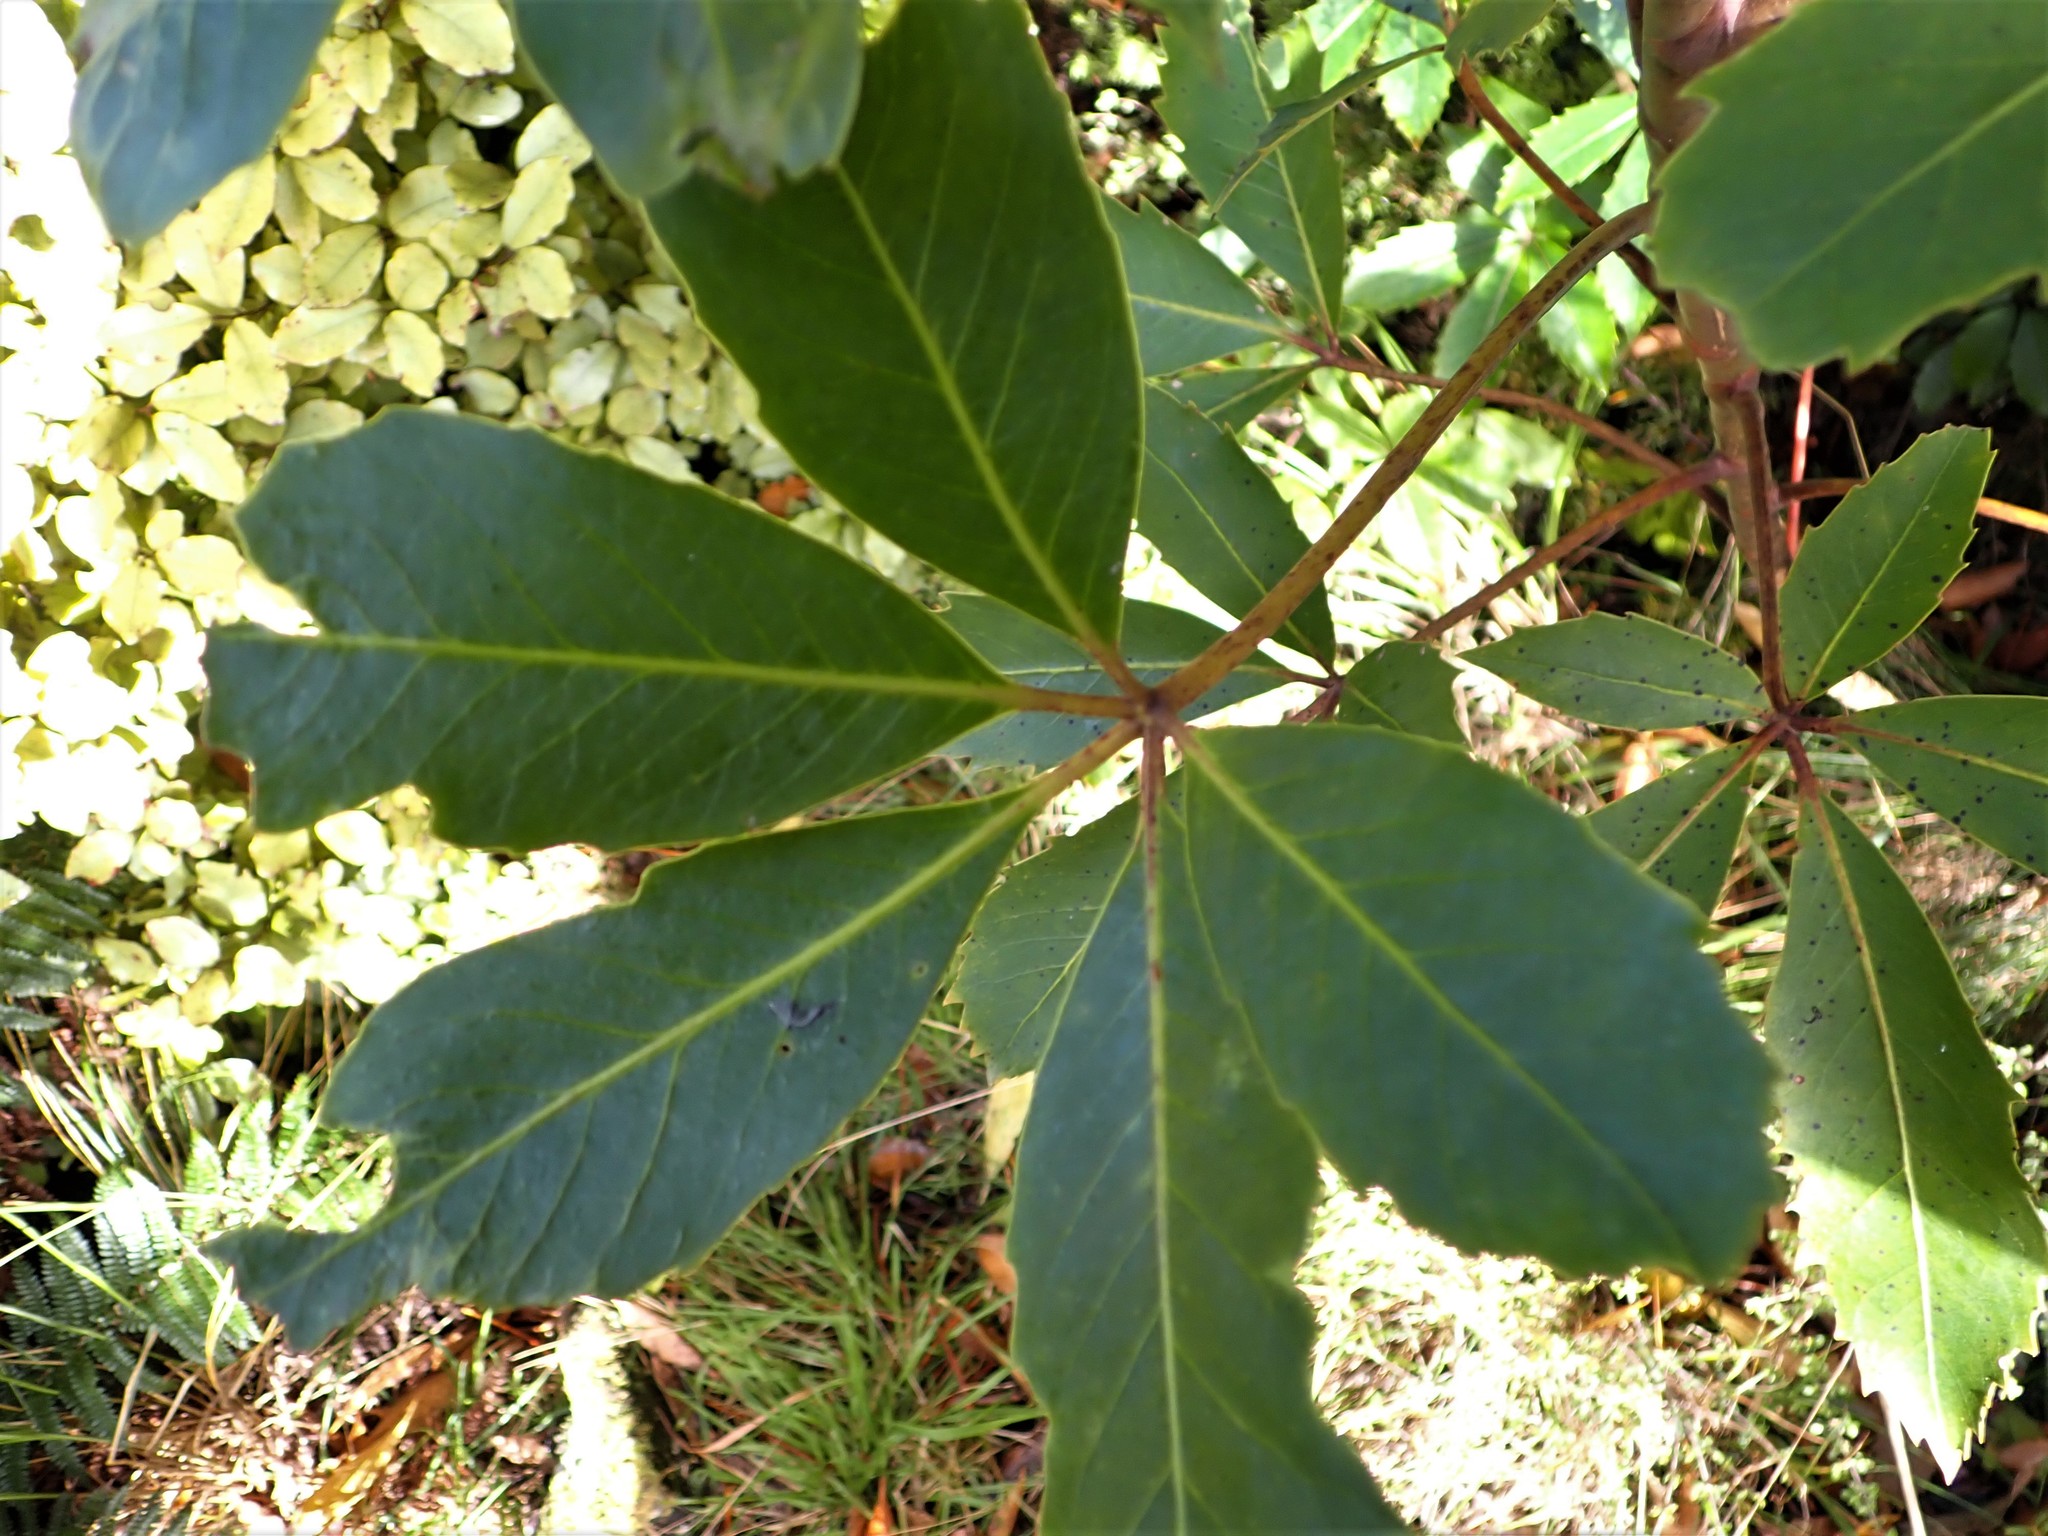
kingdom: Plantae
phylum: Tracheophyta
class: Magnoliopsida
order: Apiales
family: Araliaceae
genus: Neopanax
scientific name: Neopanax arboreus
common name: Five-fingers
